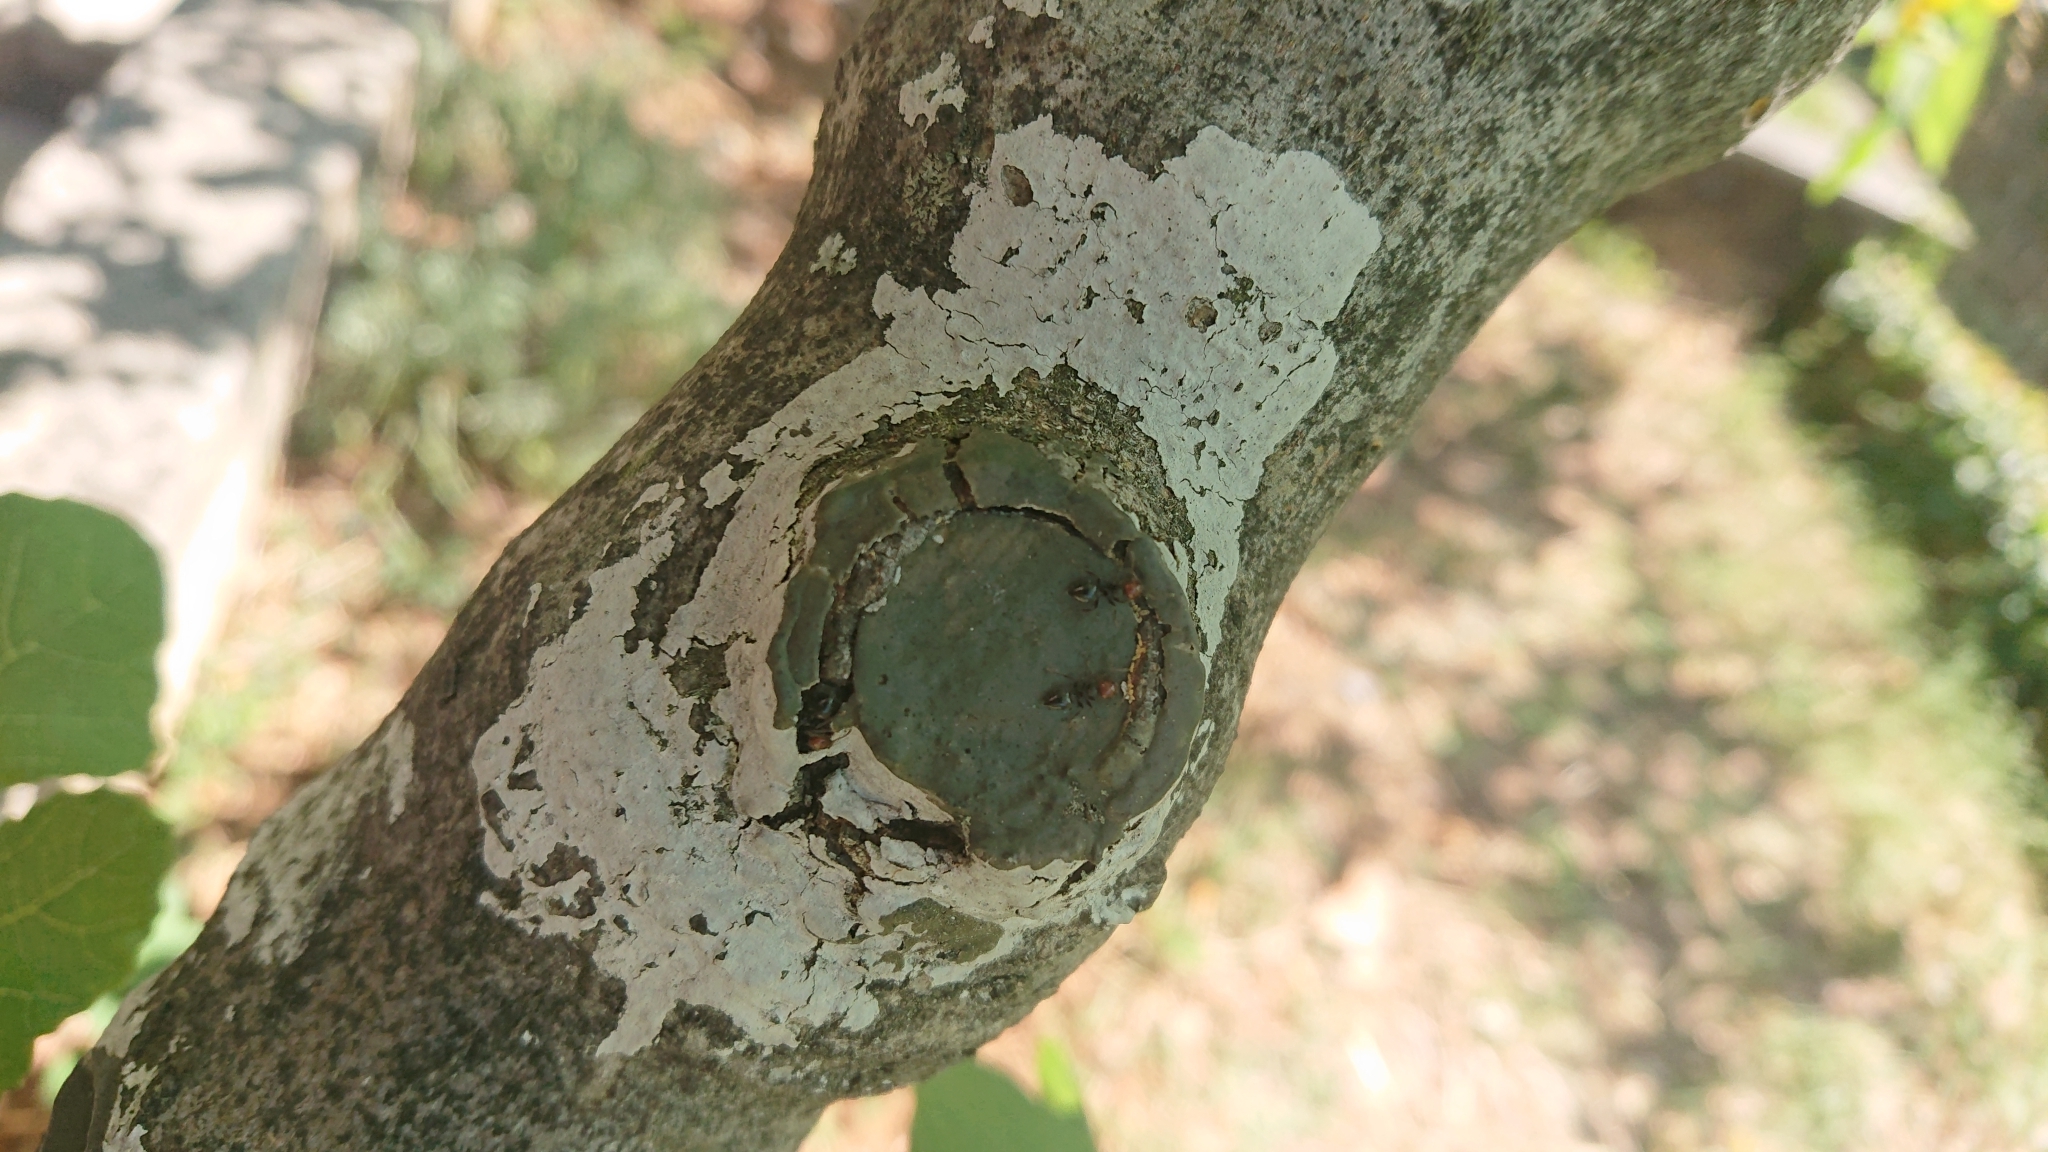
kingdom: Animalia
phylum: Arthropoda
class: Insecta
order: Hymenoptera
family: Formicidae
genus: Crematogaster
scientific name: Crematogaster scutellaris
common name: Fourmi du liège
